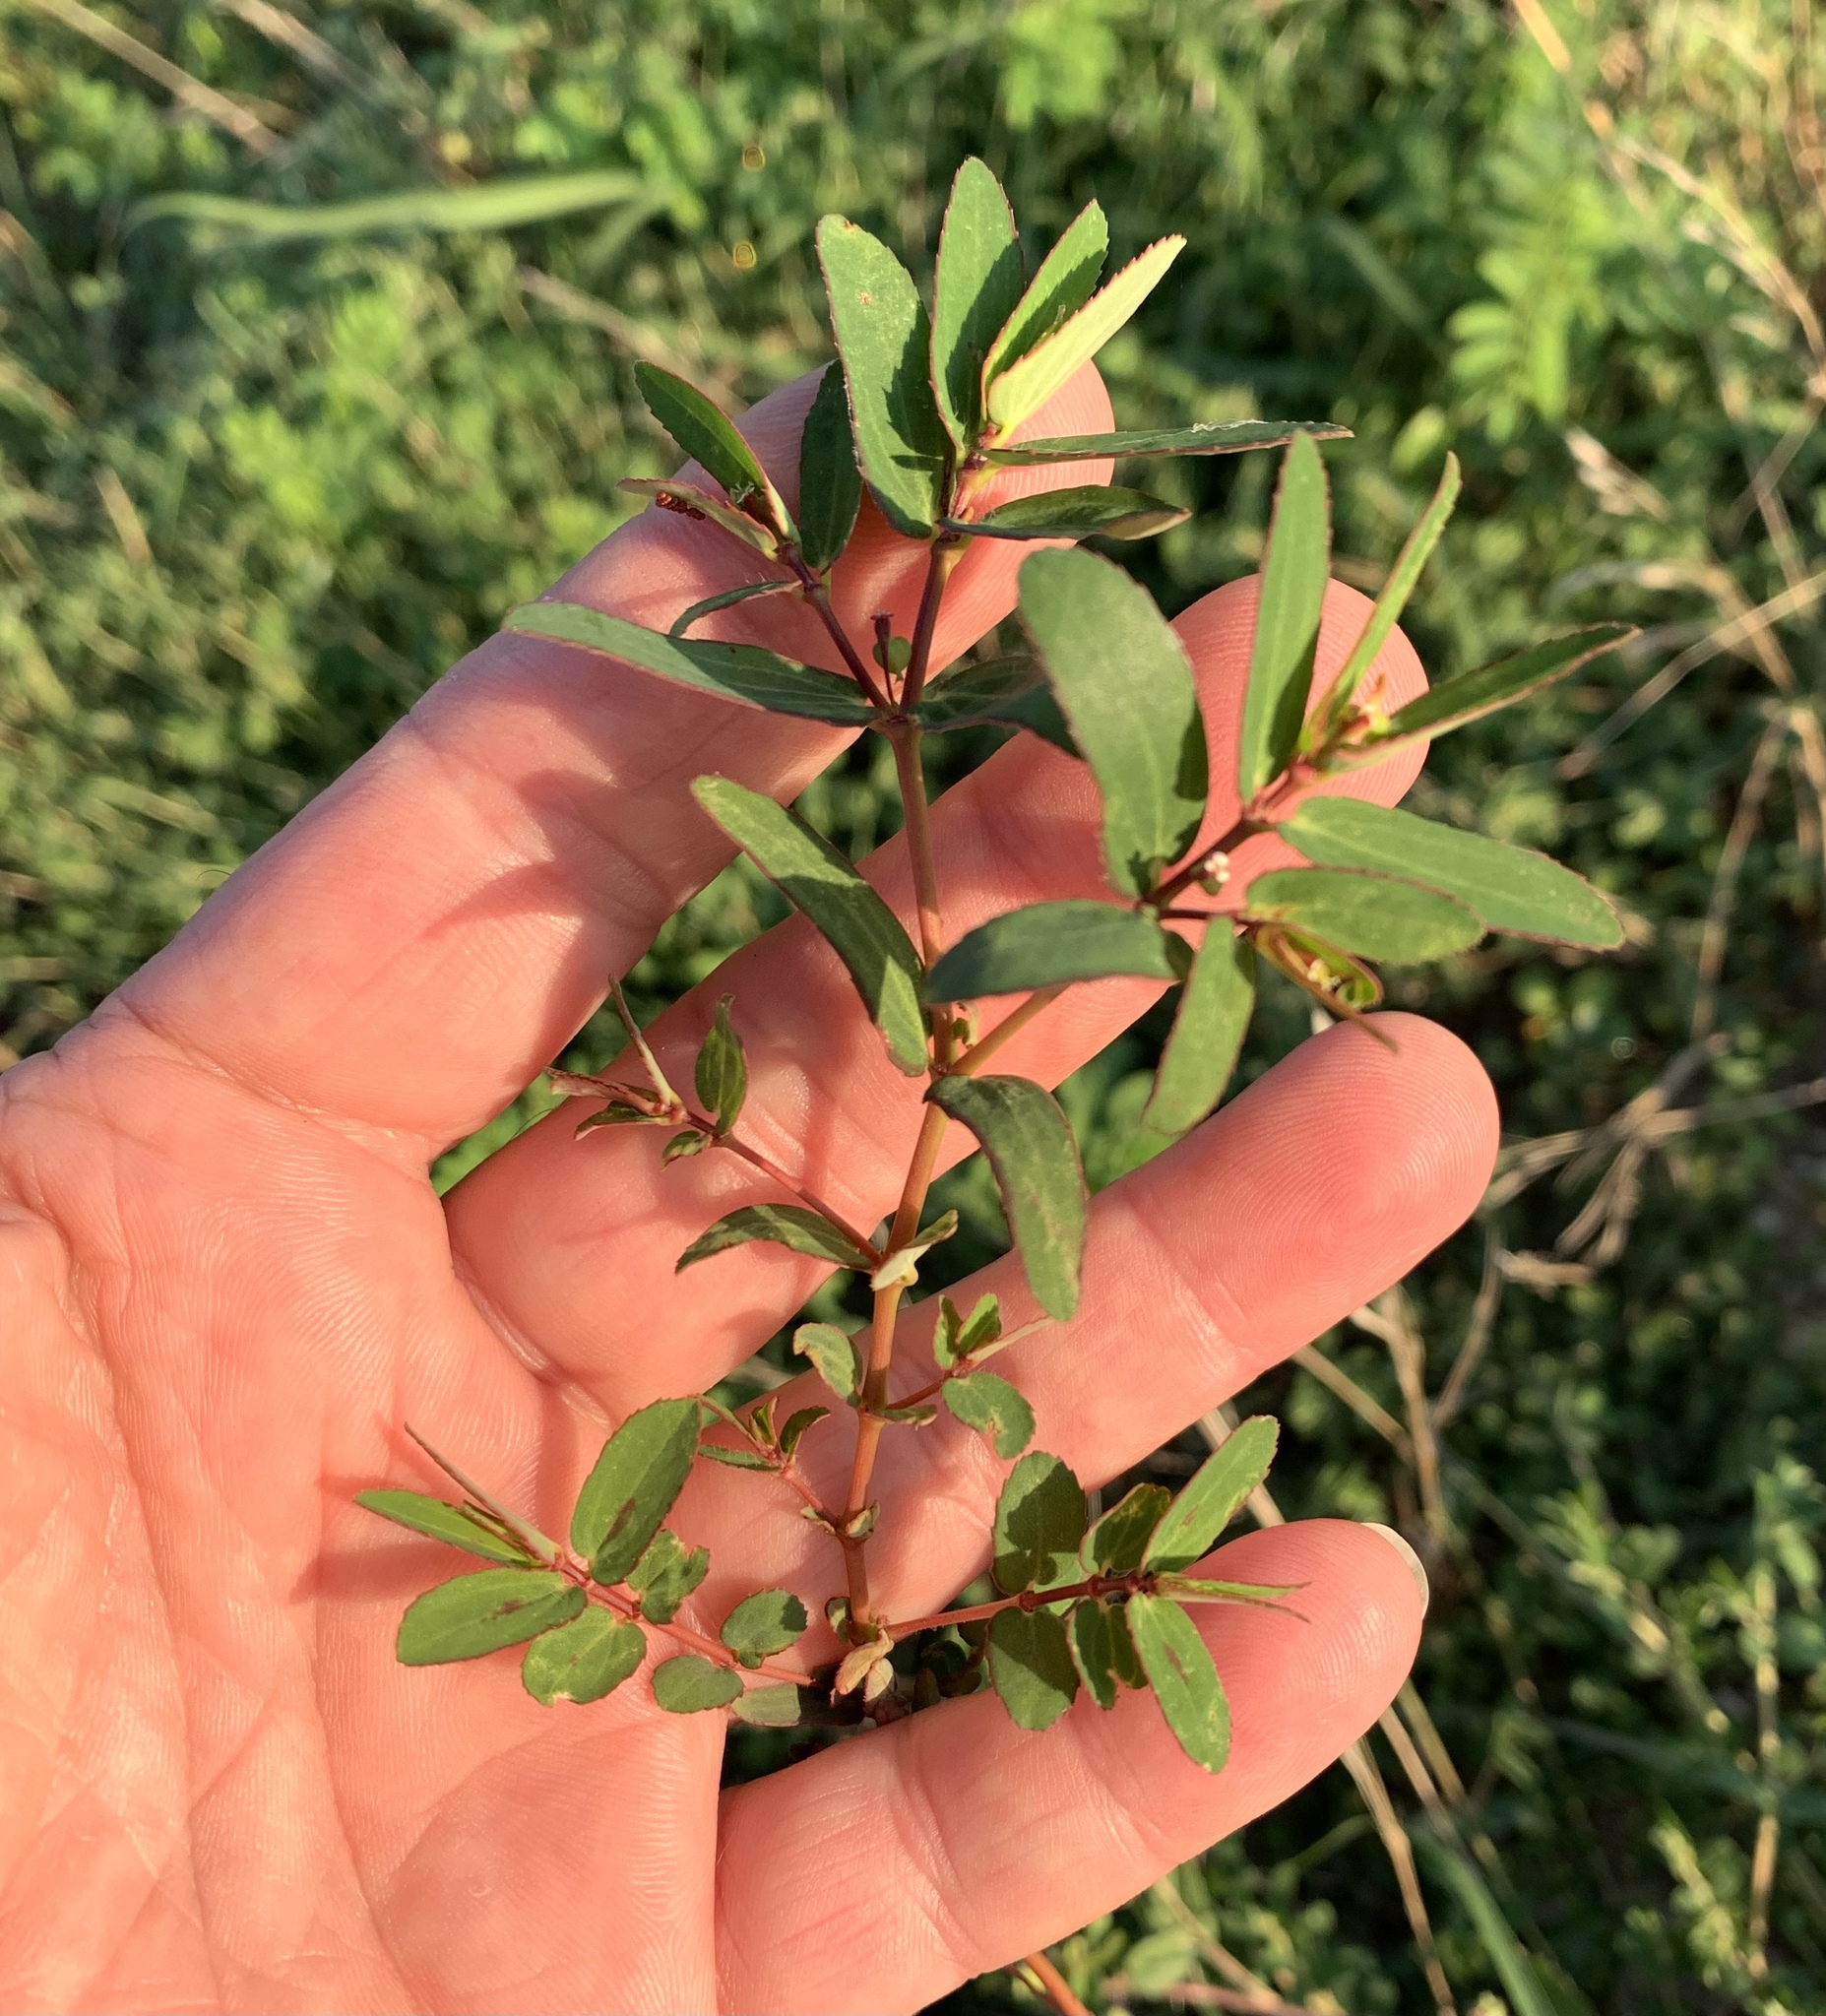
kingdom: Plantae
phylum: Tracheophyta
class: Magnoliopsida
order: Malpighiales
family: Euphorbiaceae
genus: Euphorbia
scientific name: Euphorbia nutans
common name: Eyebane
